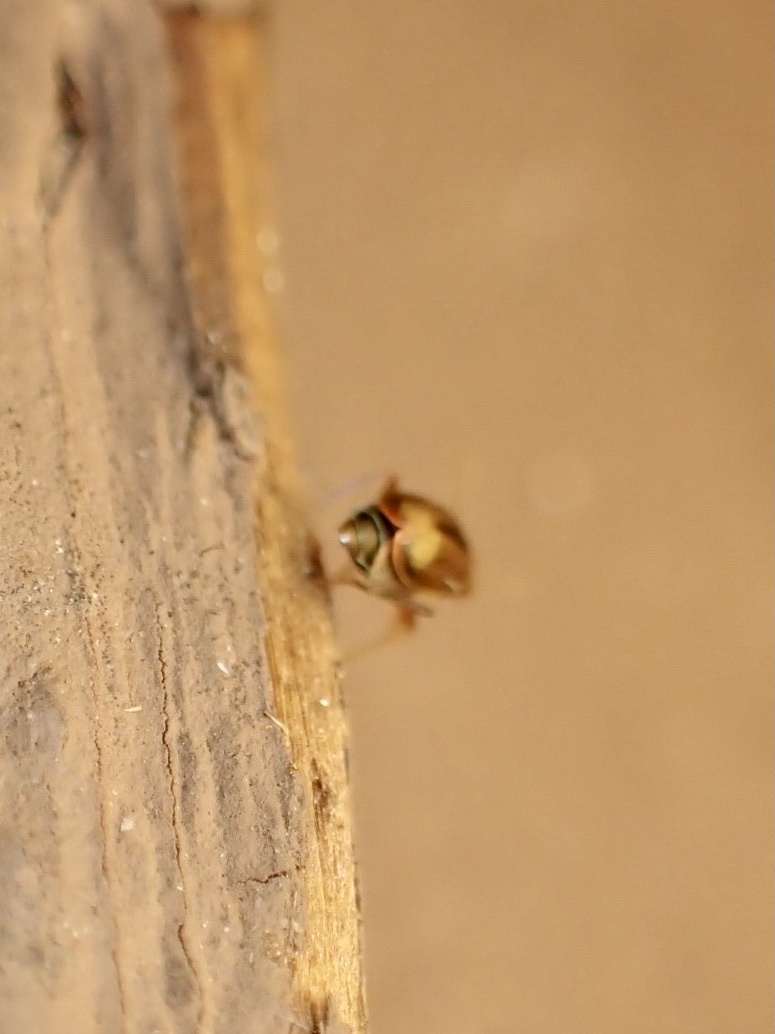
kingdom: Animalia
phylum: Arthropoda
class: Insecta
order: Coleoptera
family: Malachiidae
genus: Attalus
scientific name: Attalus
